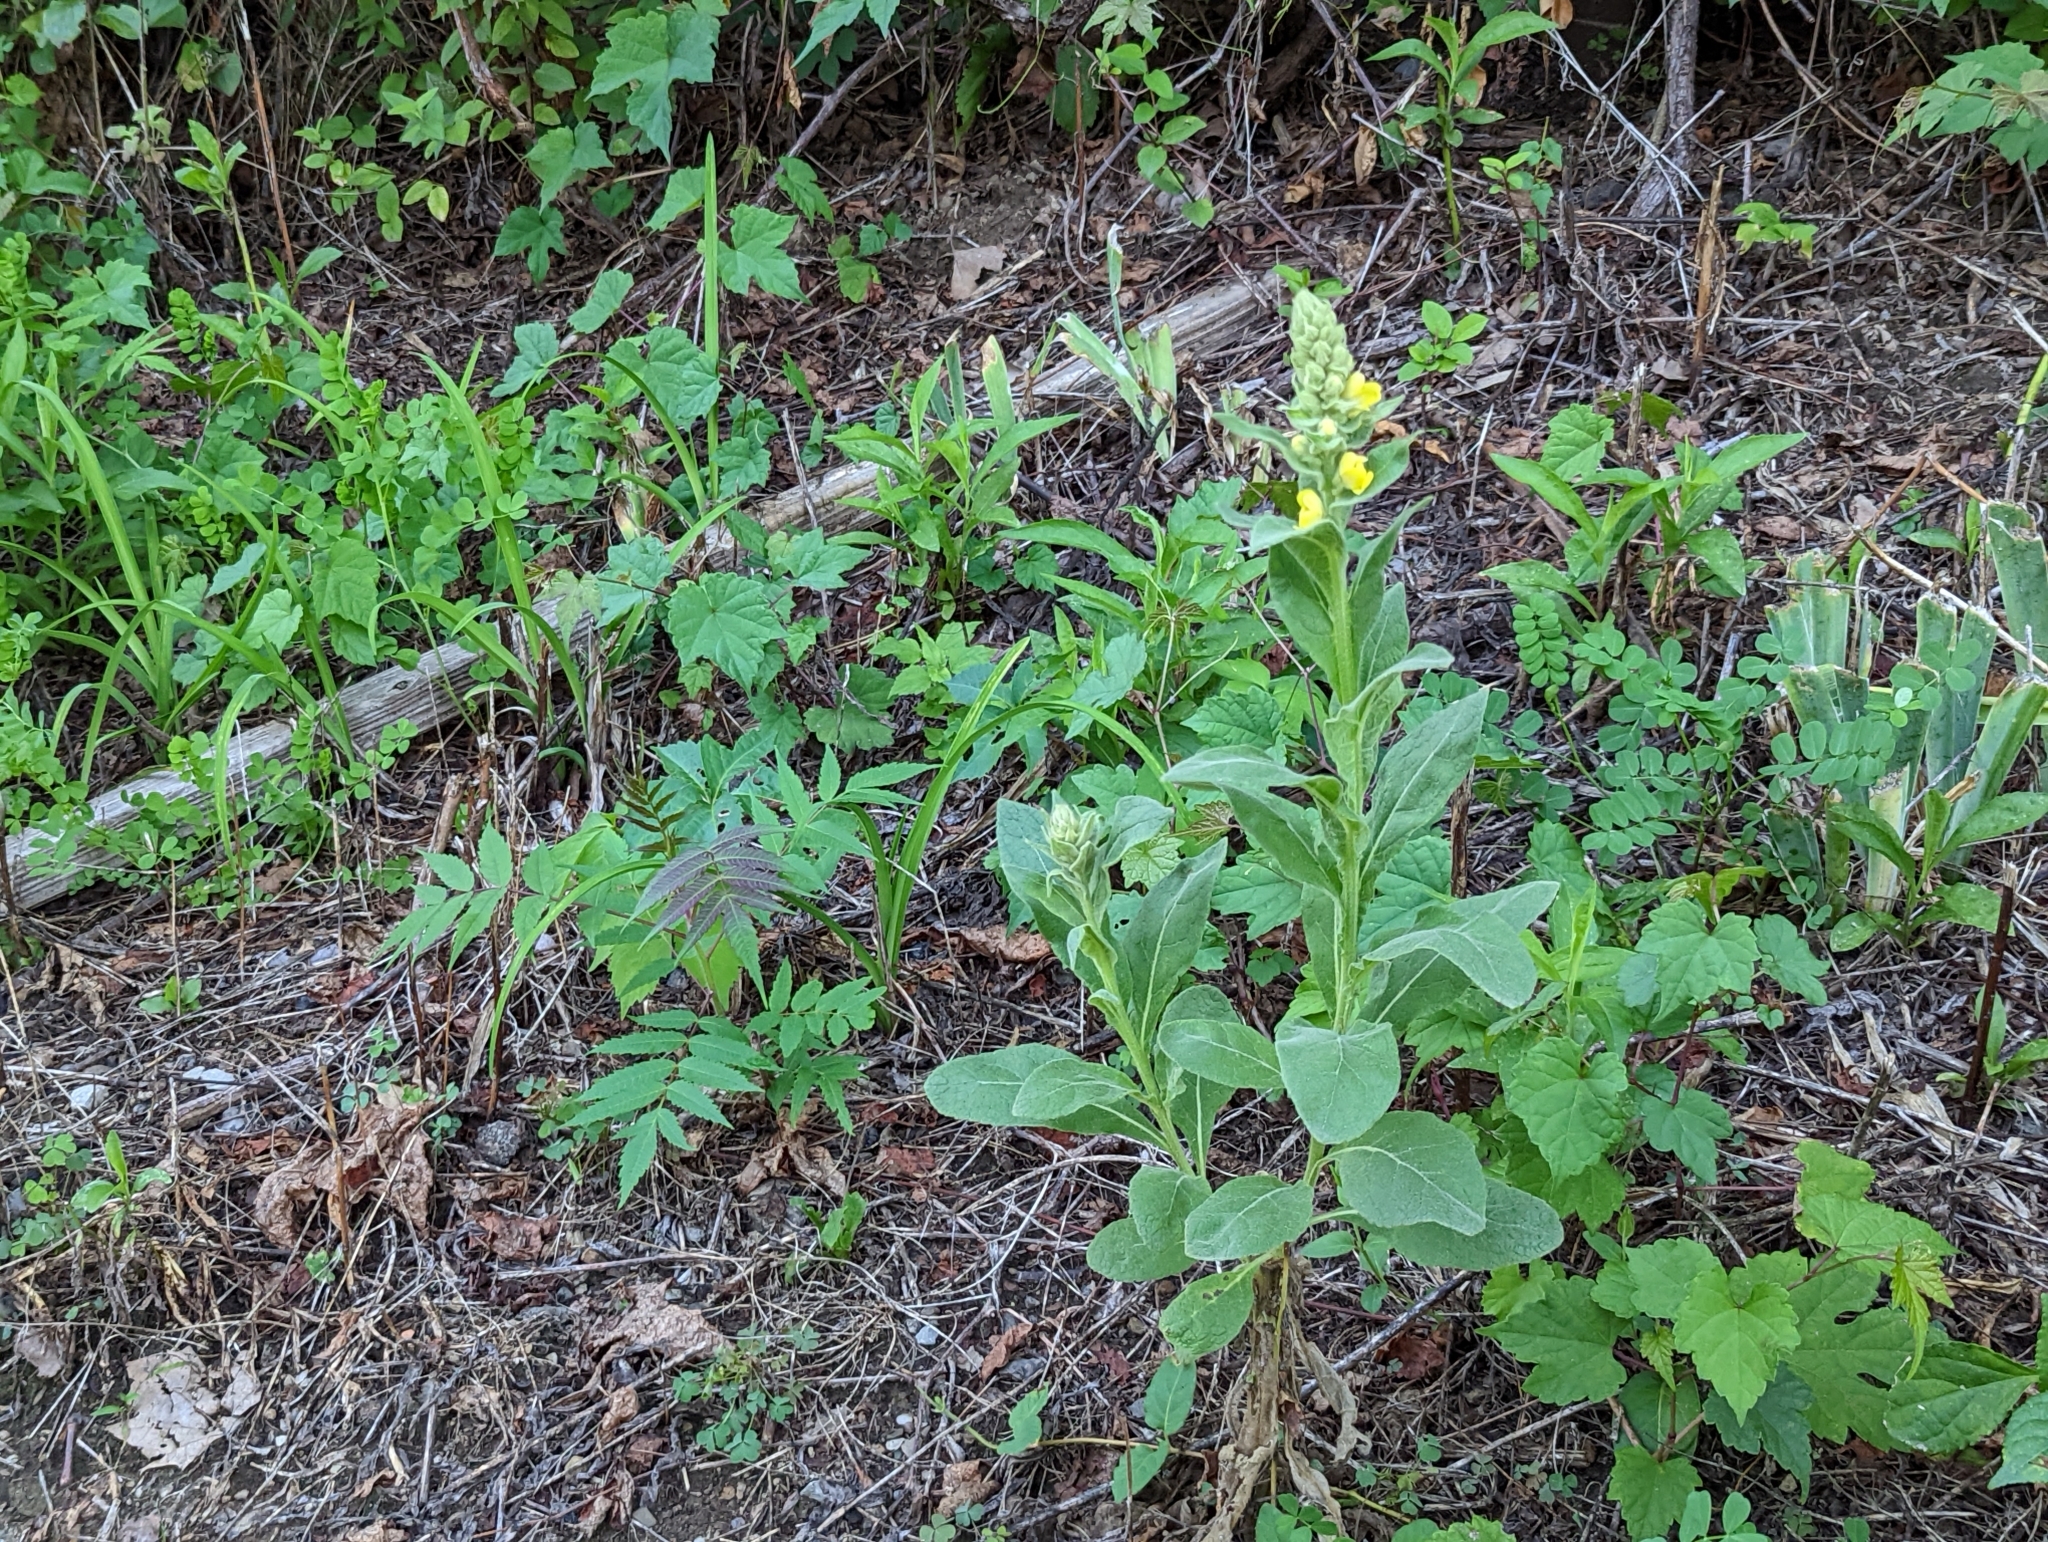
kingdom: Plantae
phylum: Tracheophyta
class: Magnoliopsida
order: Lamiales
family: Scrophulariaceae
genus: Verbascum
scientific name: Verbascum thapsus
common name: Common mullein
